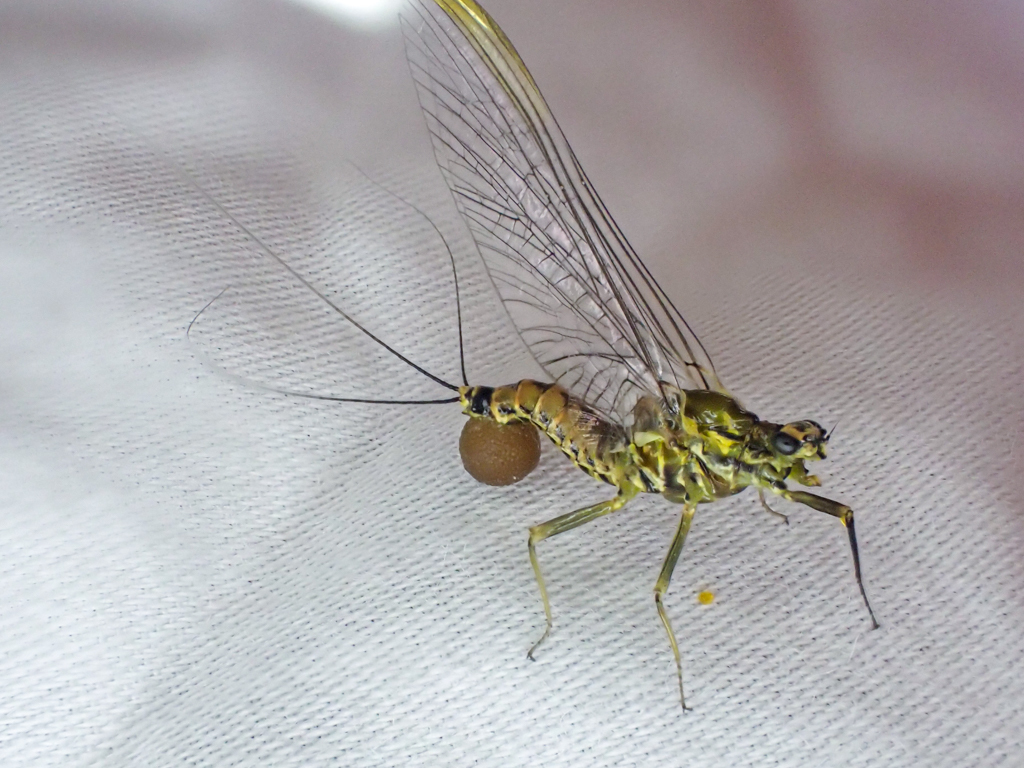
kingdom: Animalia
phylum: Arthropoda
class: Insecta
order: Ephemeroptera
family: Ephemerellidae
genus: Drunella
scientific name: Drunella coloradensis
